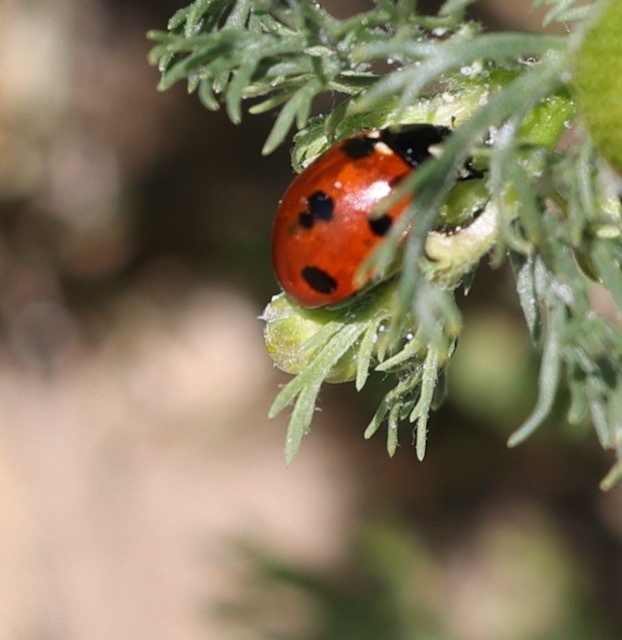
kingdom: Animalia
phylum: Arthropoda
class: Insecta
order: Coleoptera
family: Coccinellidae
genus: Coccinella
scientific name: Coccinella septempunctata
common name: Sevenspotted lady beetle
